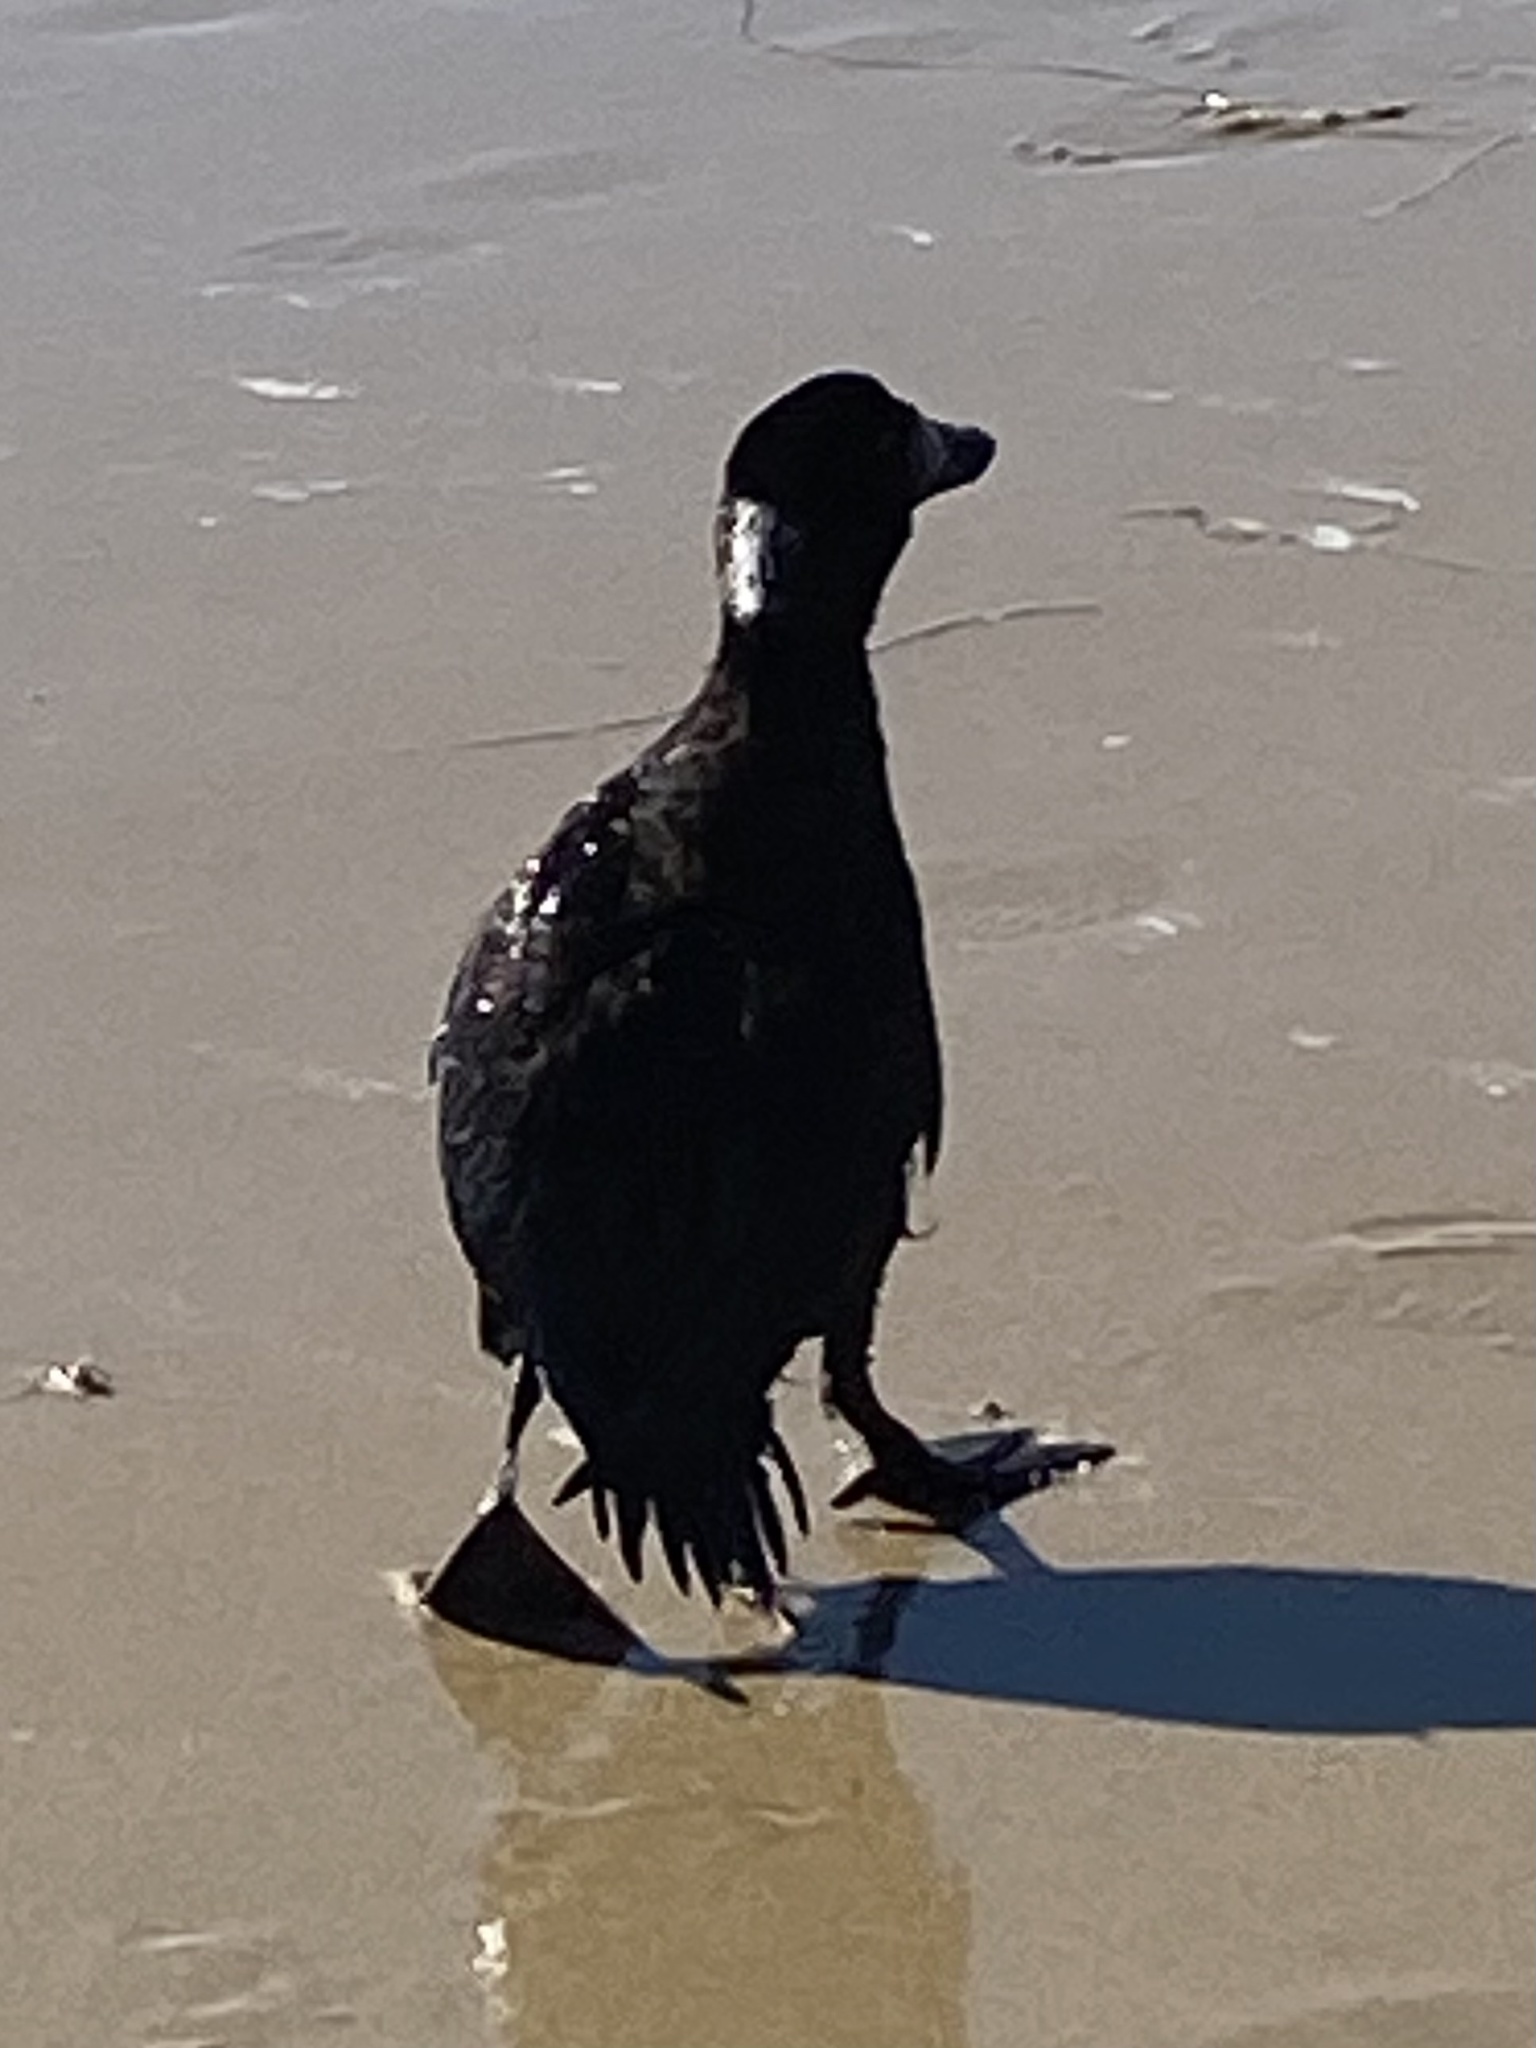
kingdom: Animalia
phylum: Chordata
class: Aves
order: Anseriformes
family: Anatidae
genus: Melanitta
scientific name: Melanitta perspicillata
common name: Surf scoter
